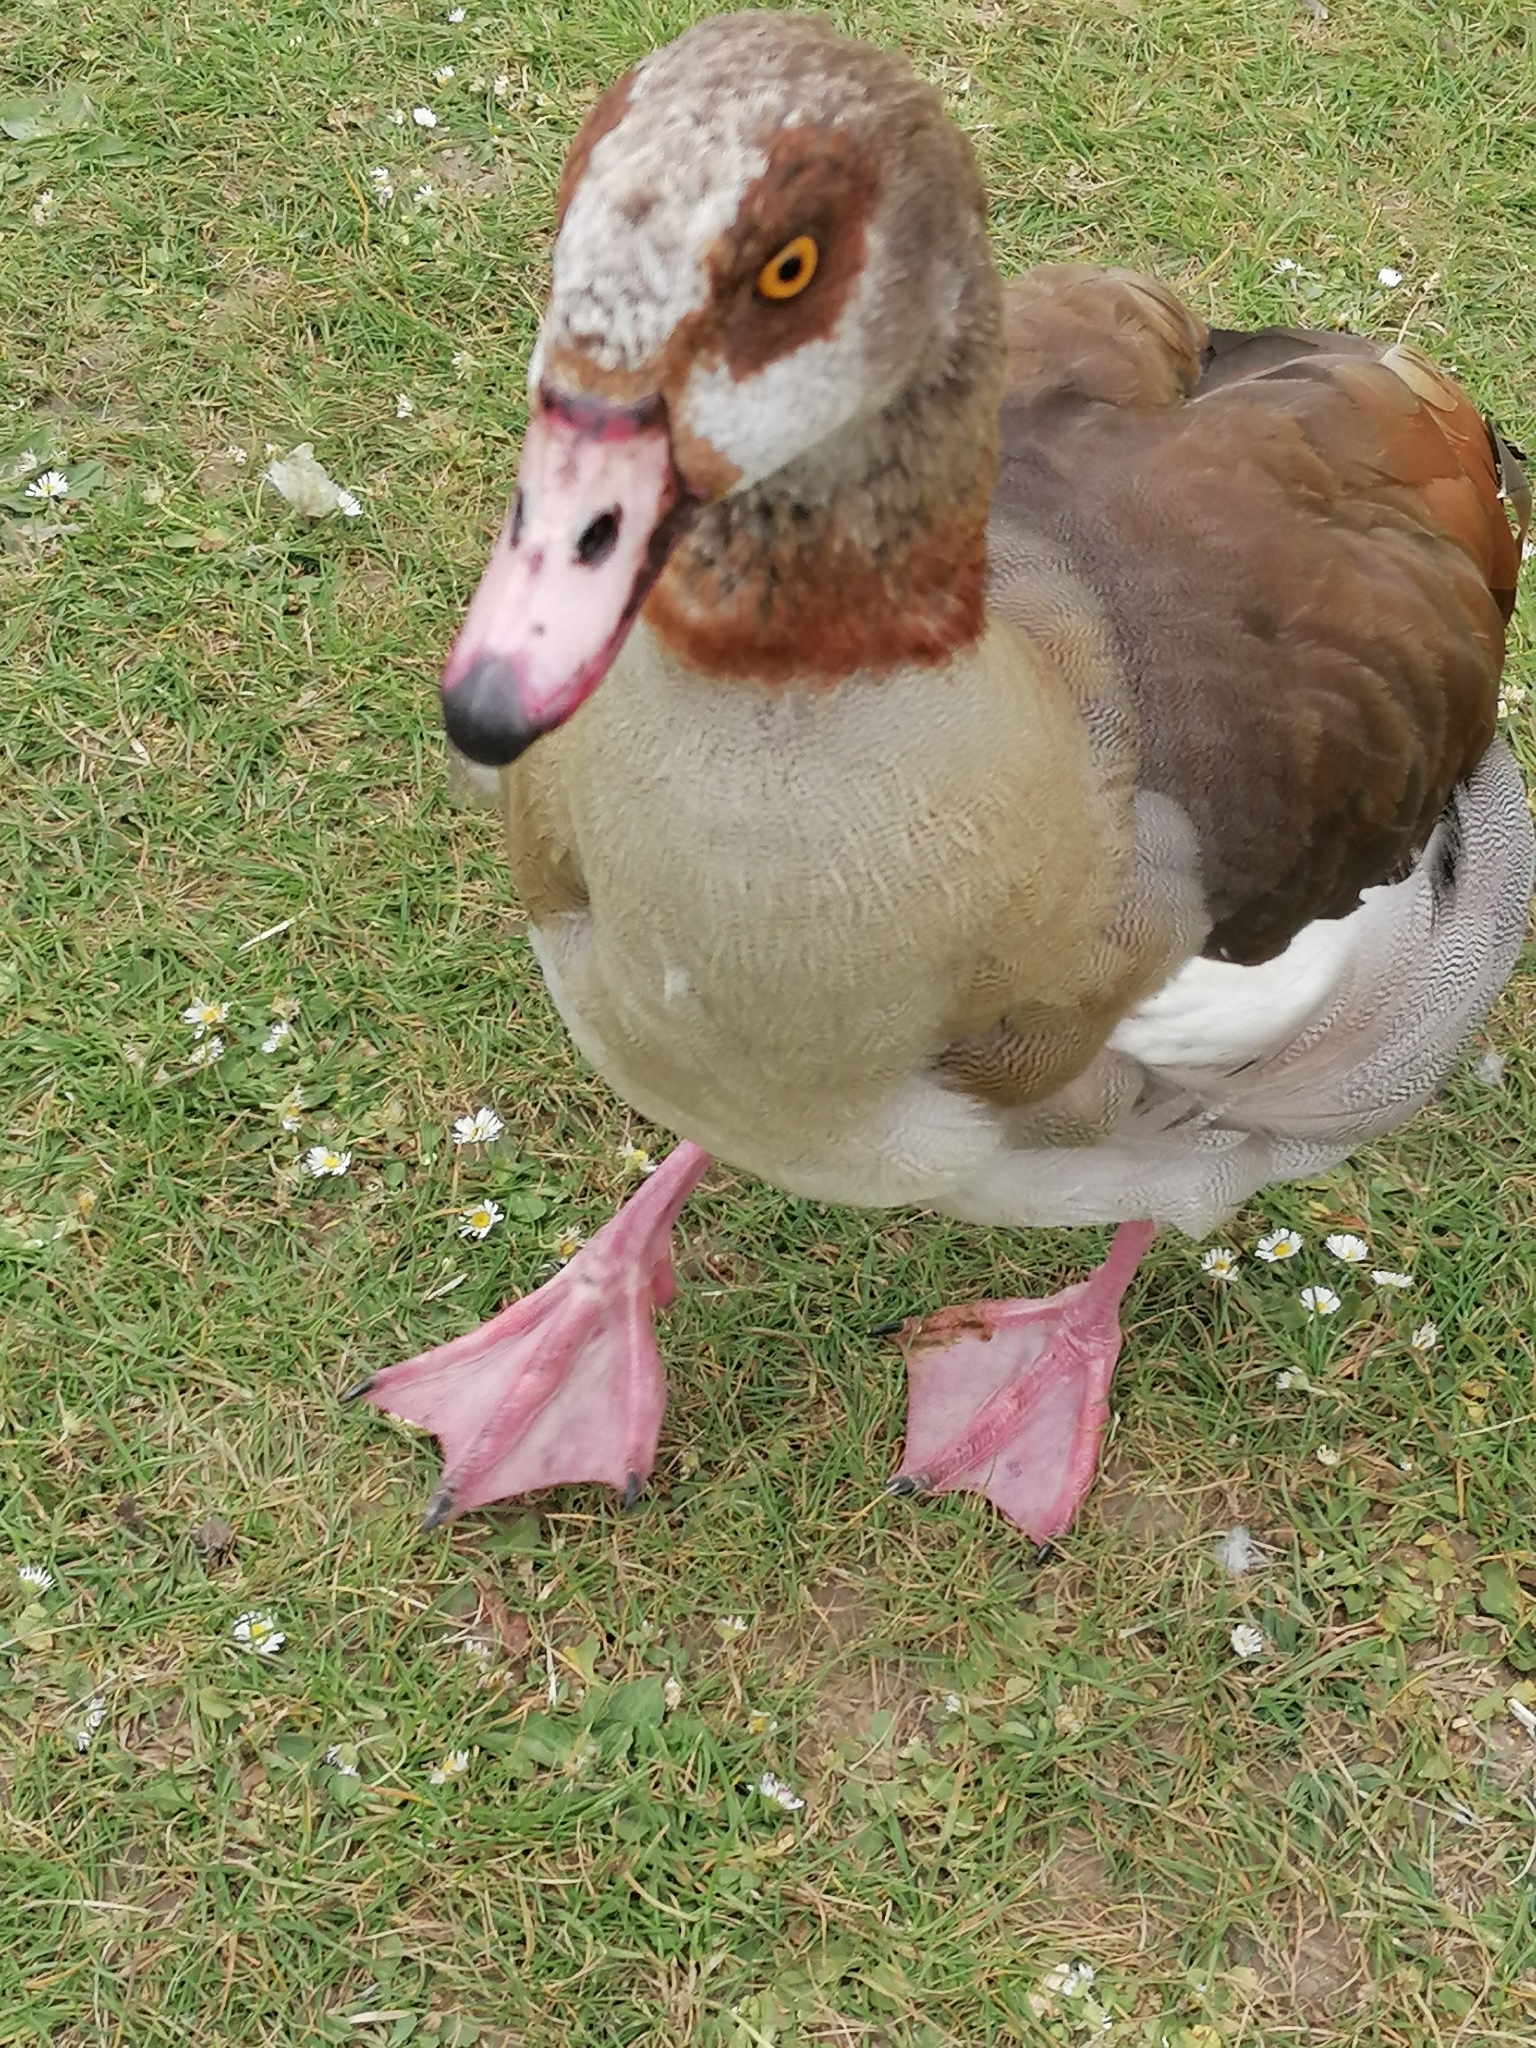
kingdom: Animalia
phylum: Chordata
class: Aves
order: Anseriformes
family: Anatidae
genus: Alopochen
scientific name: Alopochen aegyptiaca
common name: Egyptian goose
